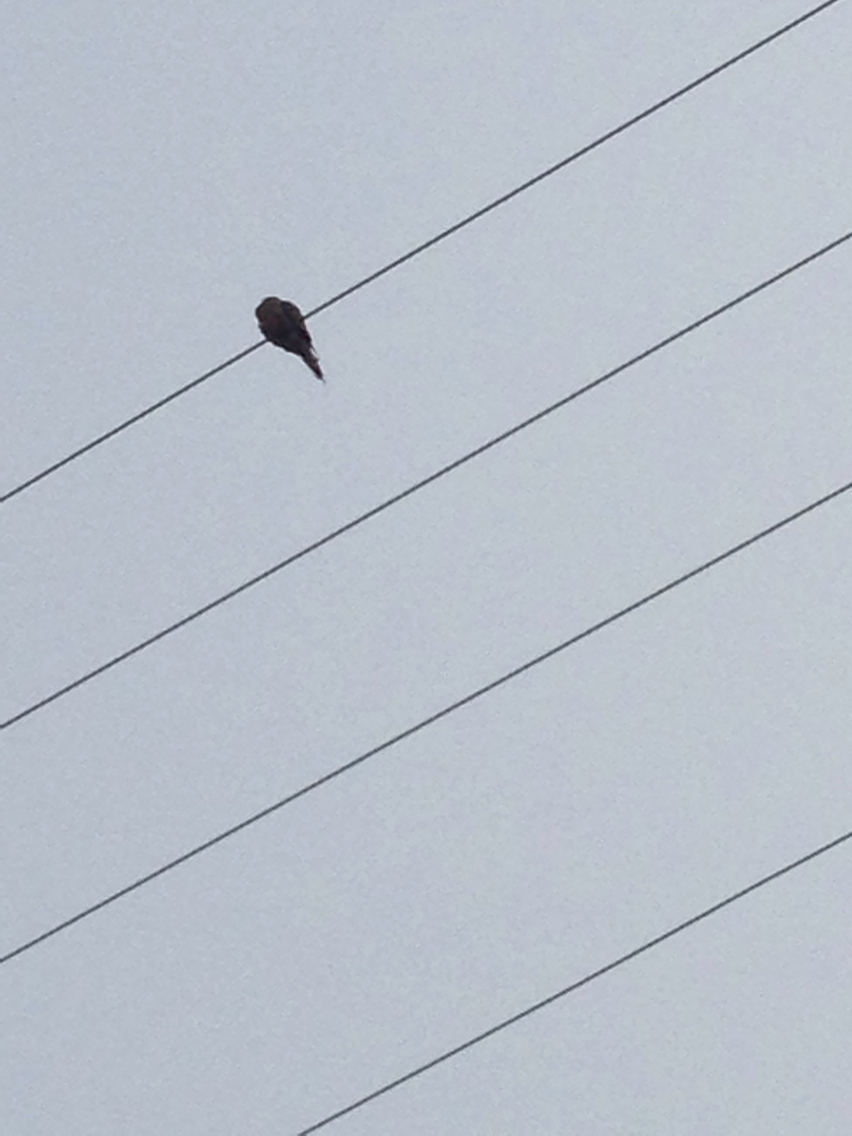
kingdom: Animalia
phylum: Chordata
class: Aves
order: Columbiformes
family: Columbidae
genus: Zenaida
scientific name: Zenaida macroura
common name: Mourning dove
